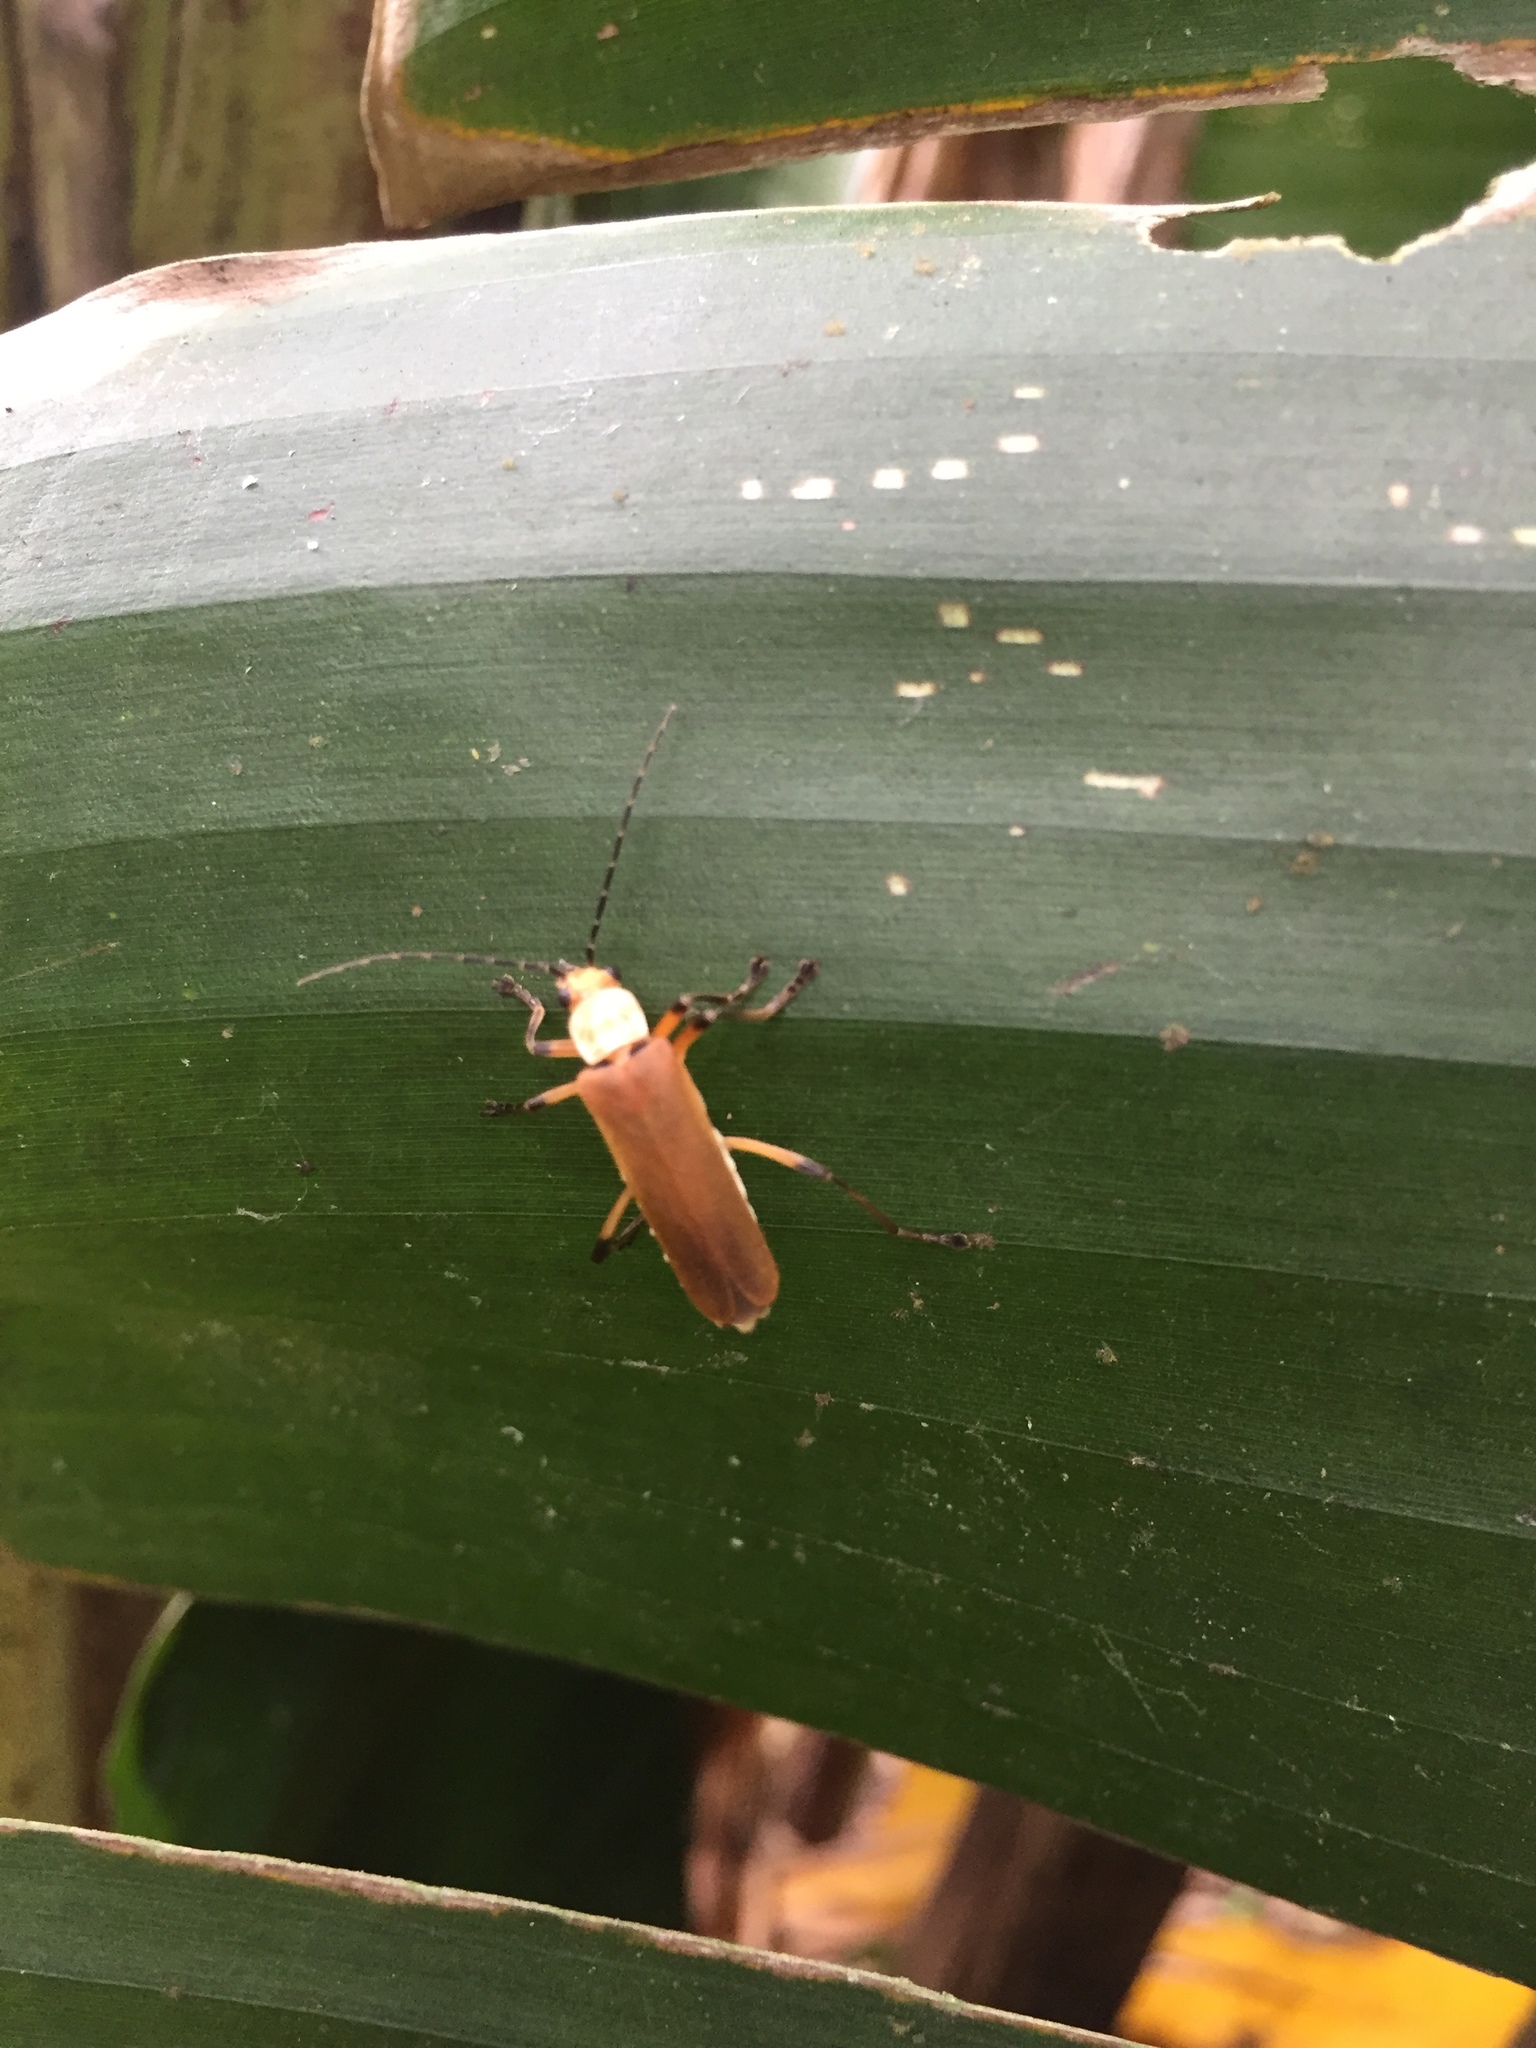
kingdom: Animalia
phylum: Arthropoda
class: Insecta
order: Coleoptera
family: Cantharidae
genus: Chauliognathus
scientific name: Chauliognathus
